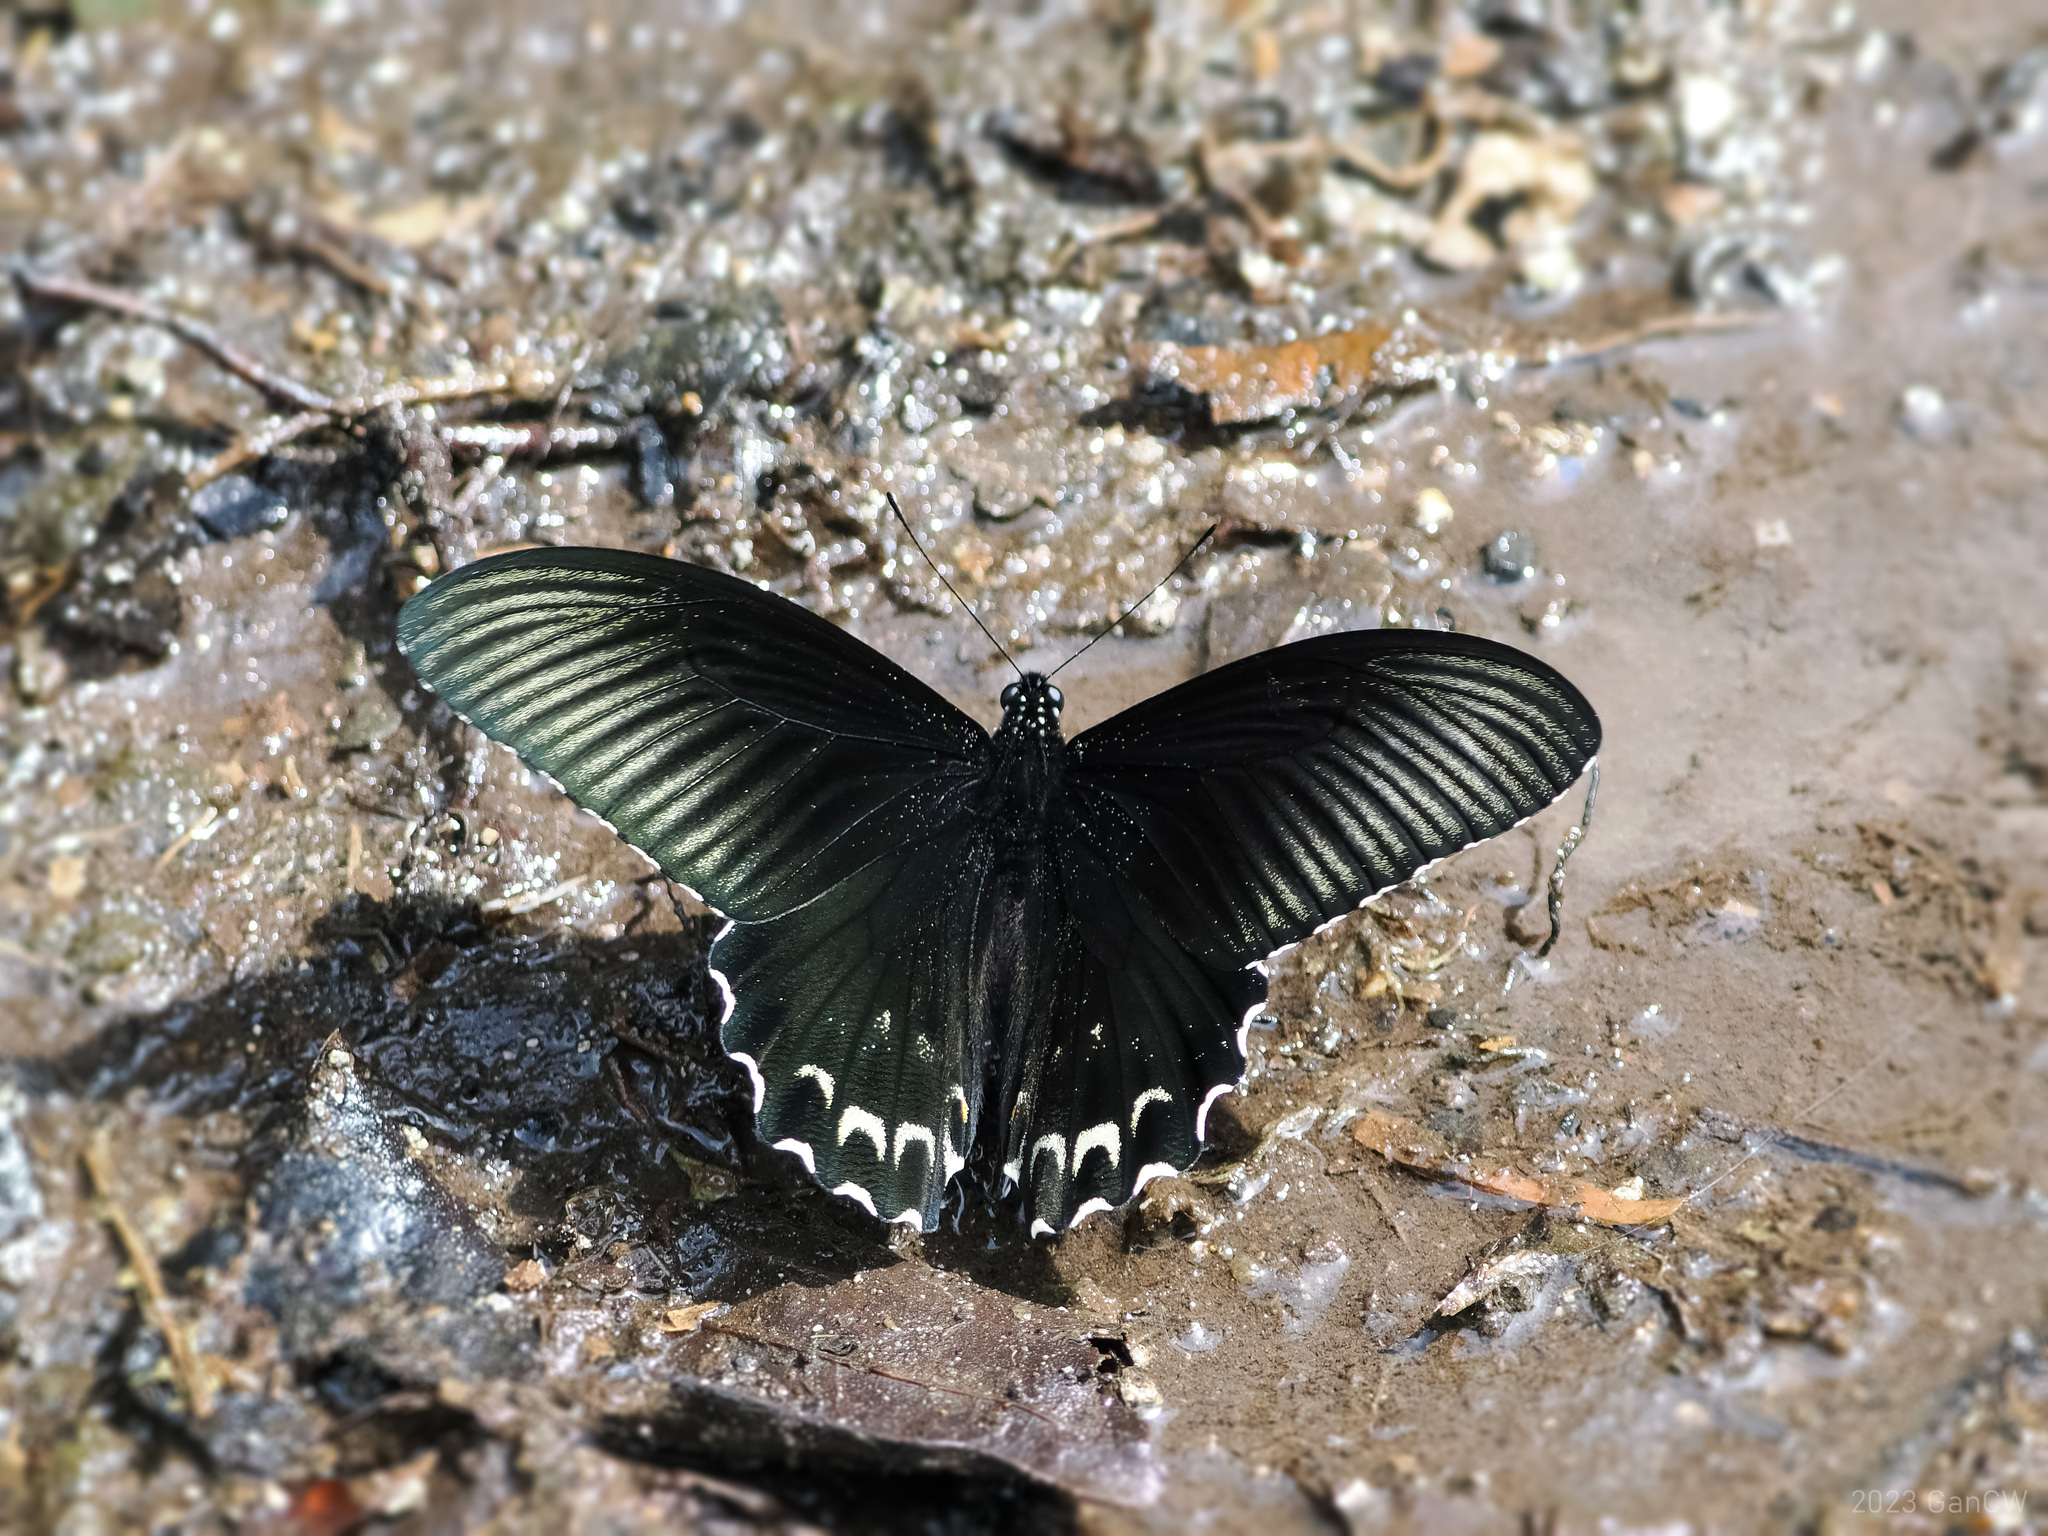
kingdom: Animalia
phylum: Arthropoda
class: Insecta
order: Lepidoptera
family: Papilionidae
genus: Papilio
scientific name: Papilio forbesi
